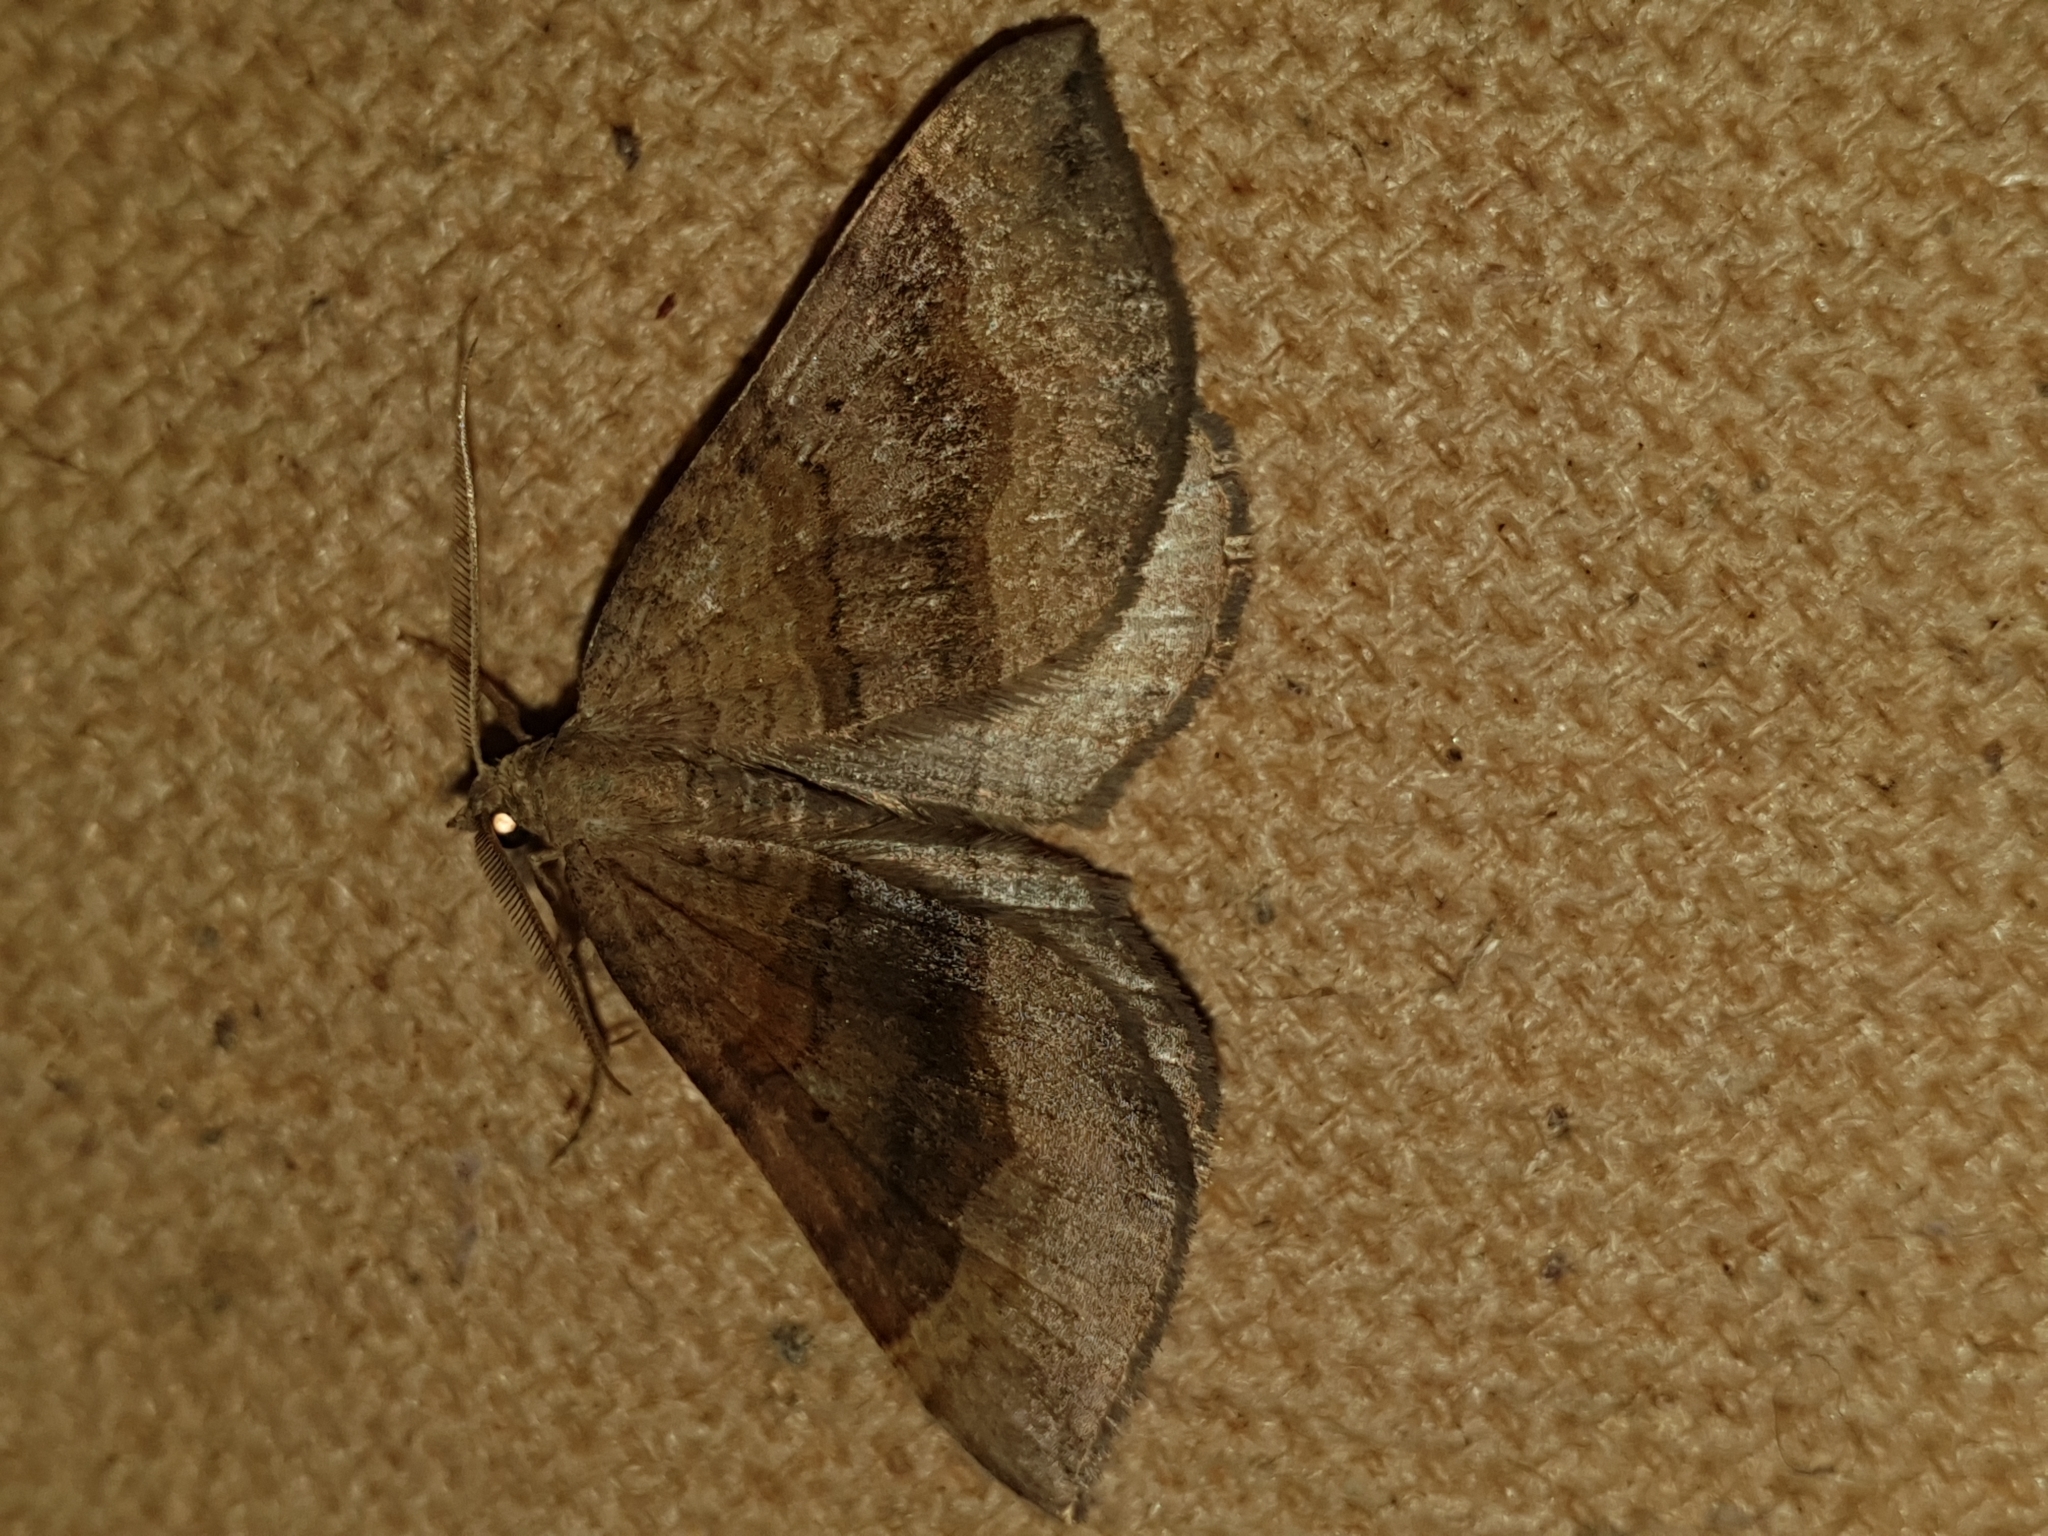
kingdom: Animalia
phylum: Arthropoda
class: Insecta
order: Lepidoptera
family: Geometridae
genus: Scotopteryx
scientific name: Scotopteryx chenopodiata
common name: Shaded broad-bar
